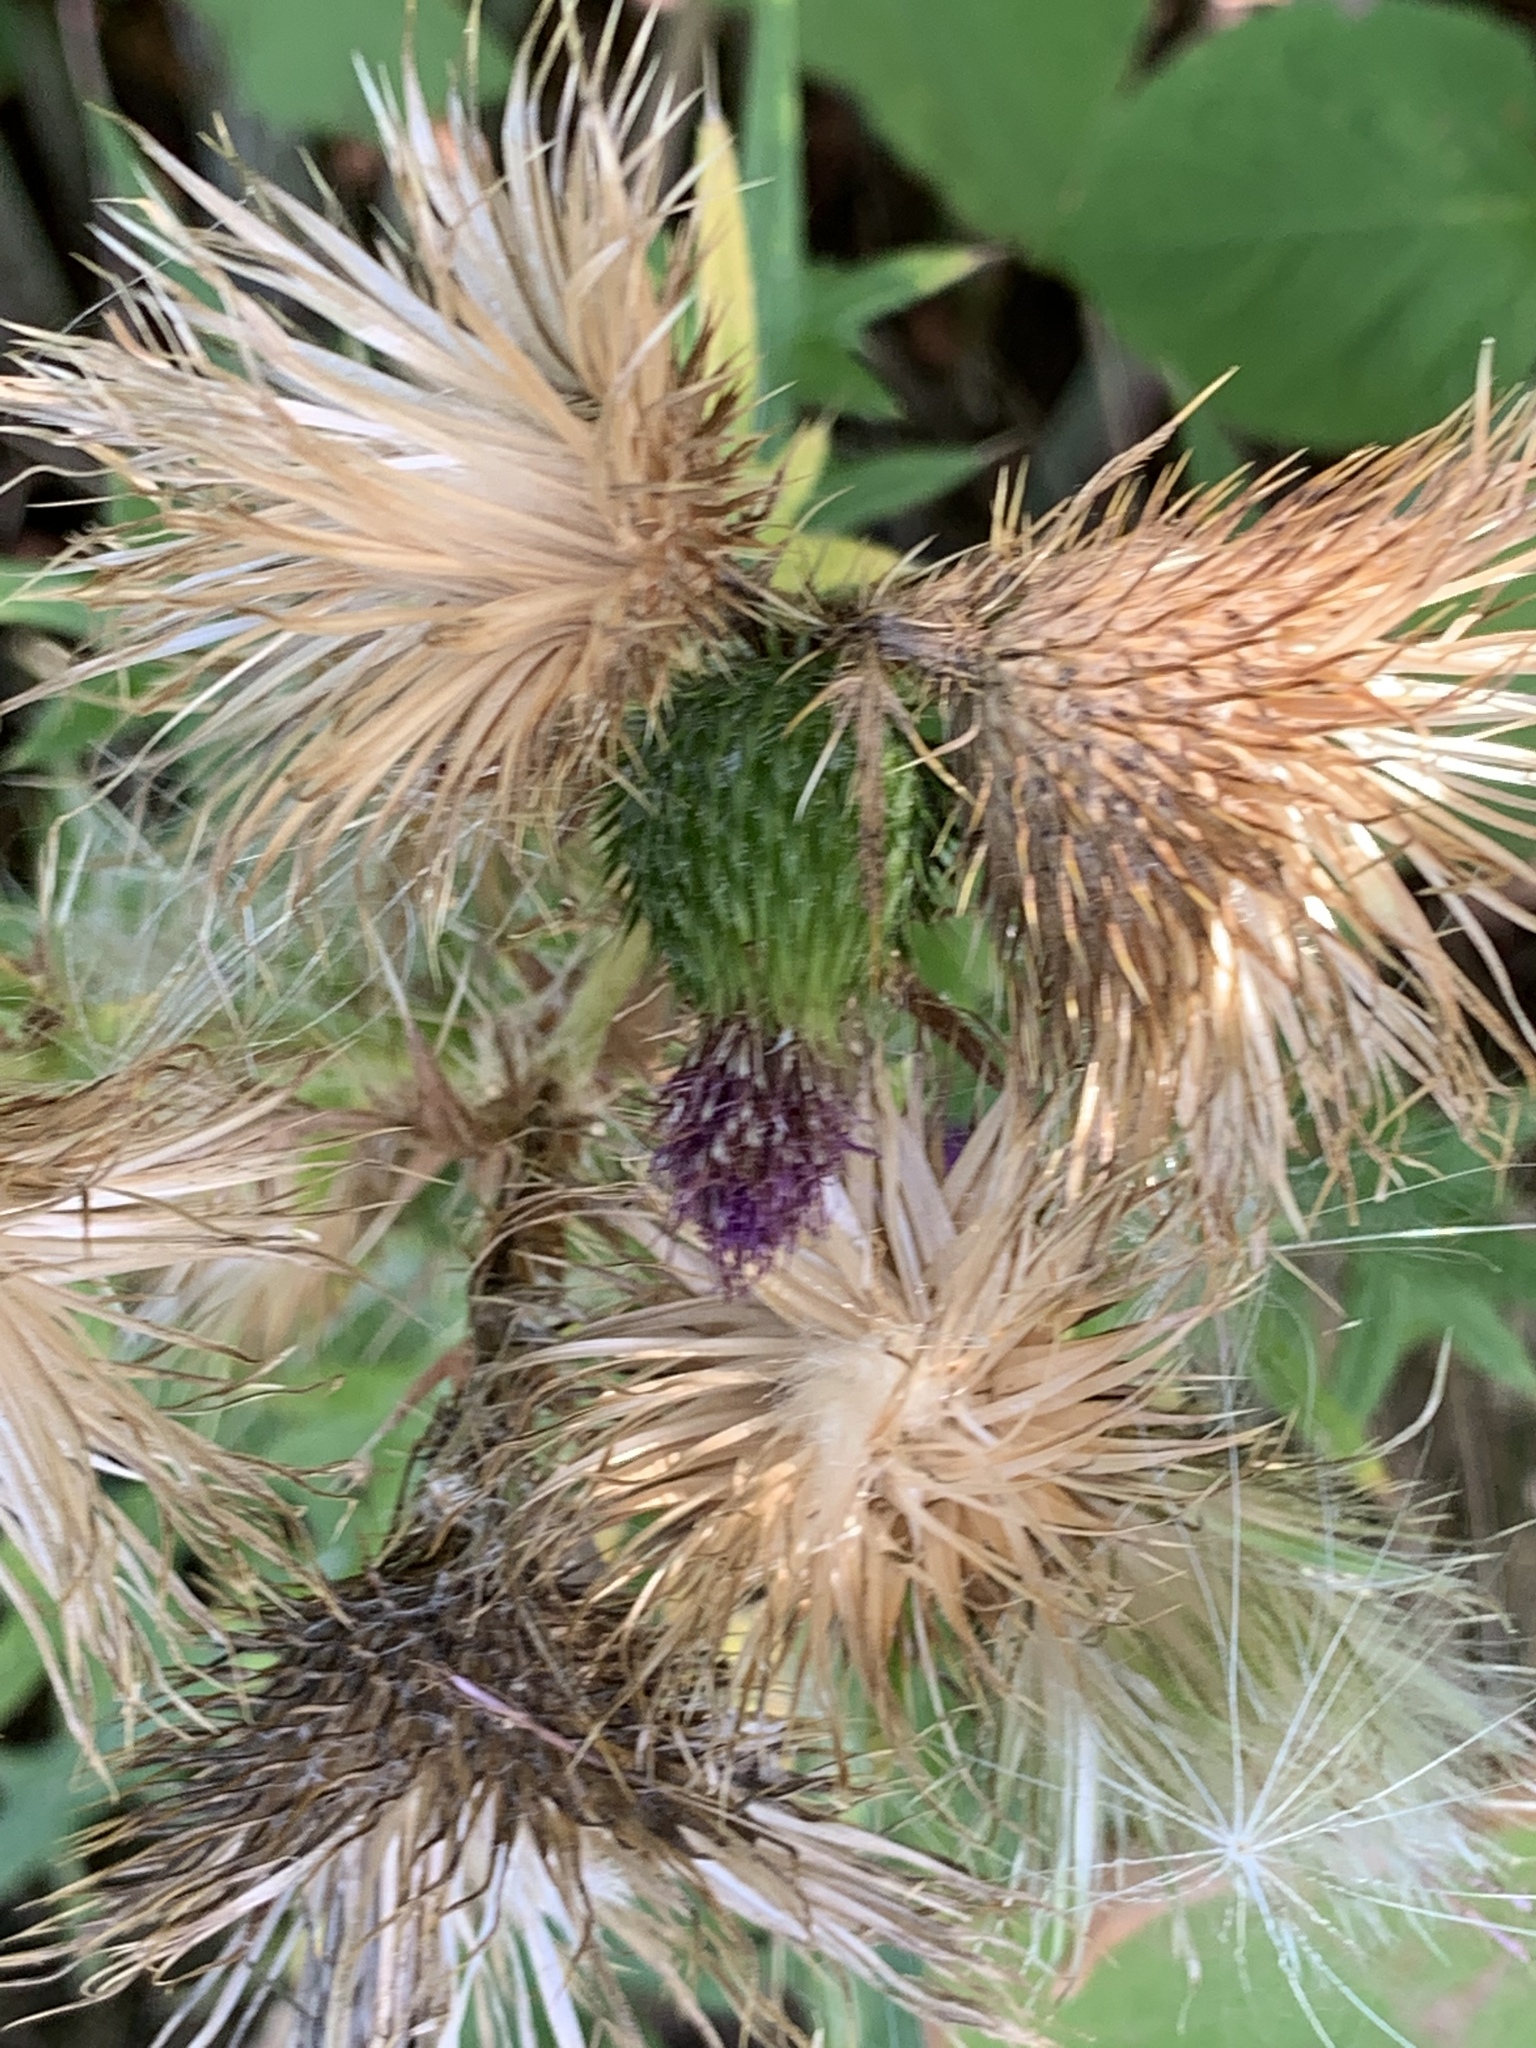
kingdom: Plantae
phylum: Tracheophyta
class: Magnoliopsida
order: Asterales
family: Asteraceae
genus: Cirsium
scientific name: Cirsium vulgare
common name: Bull thistle
